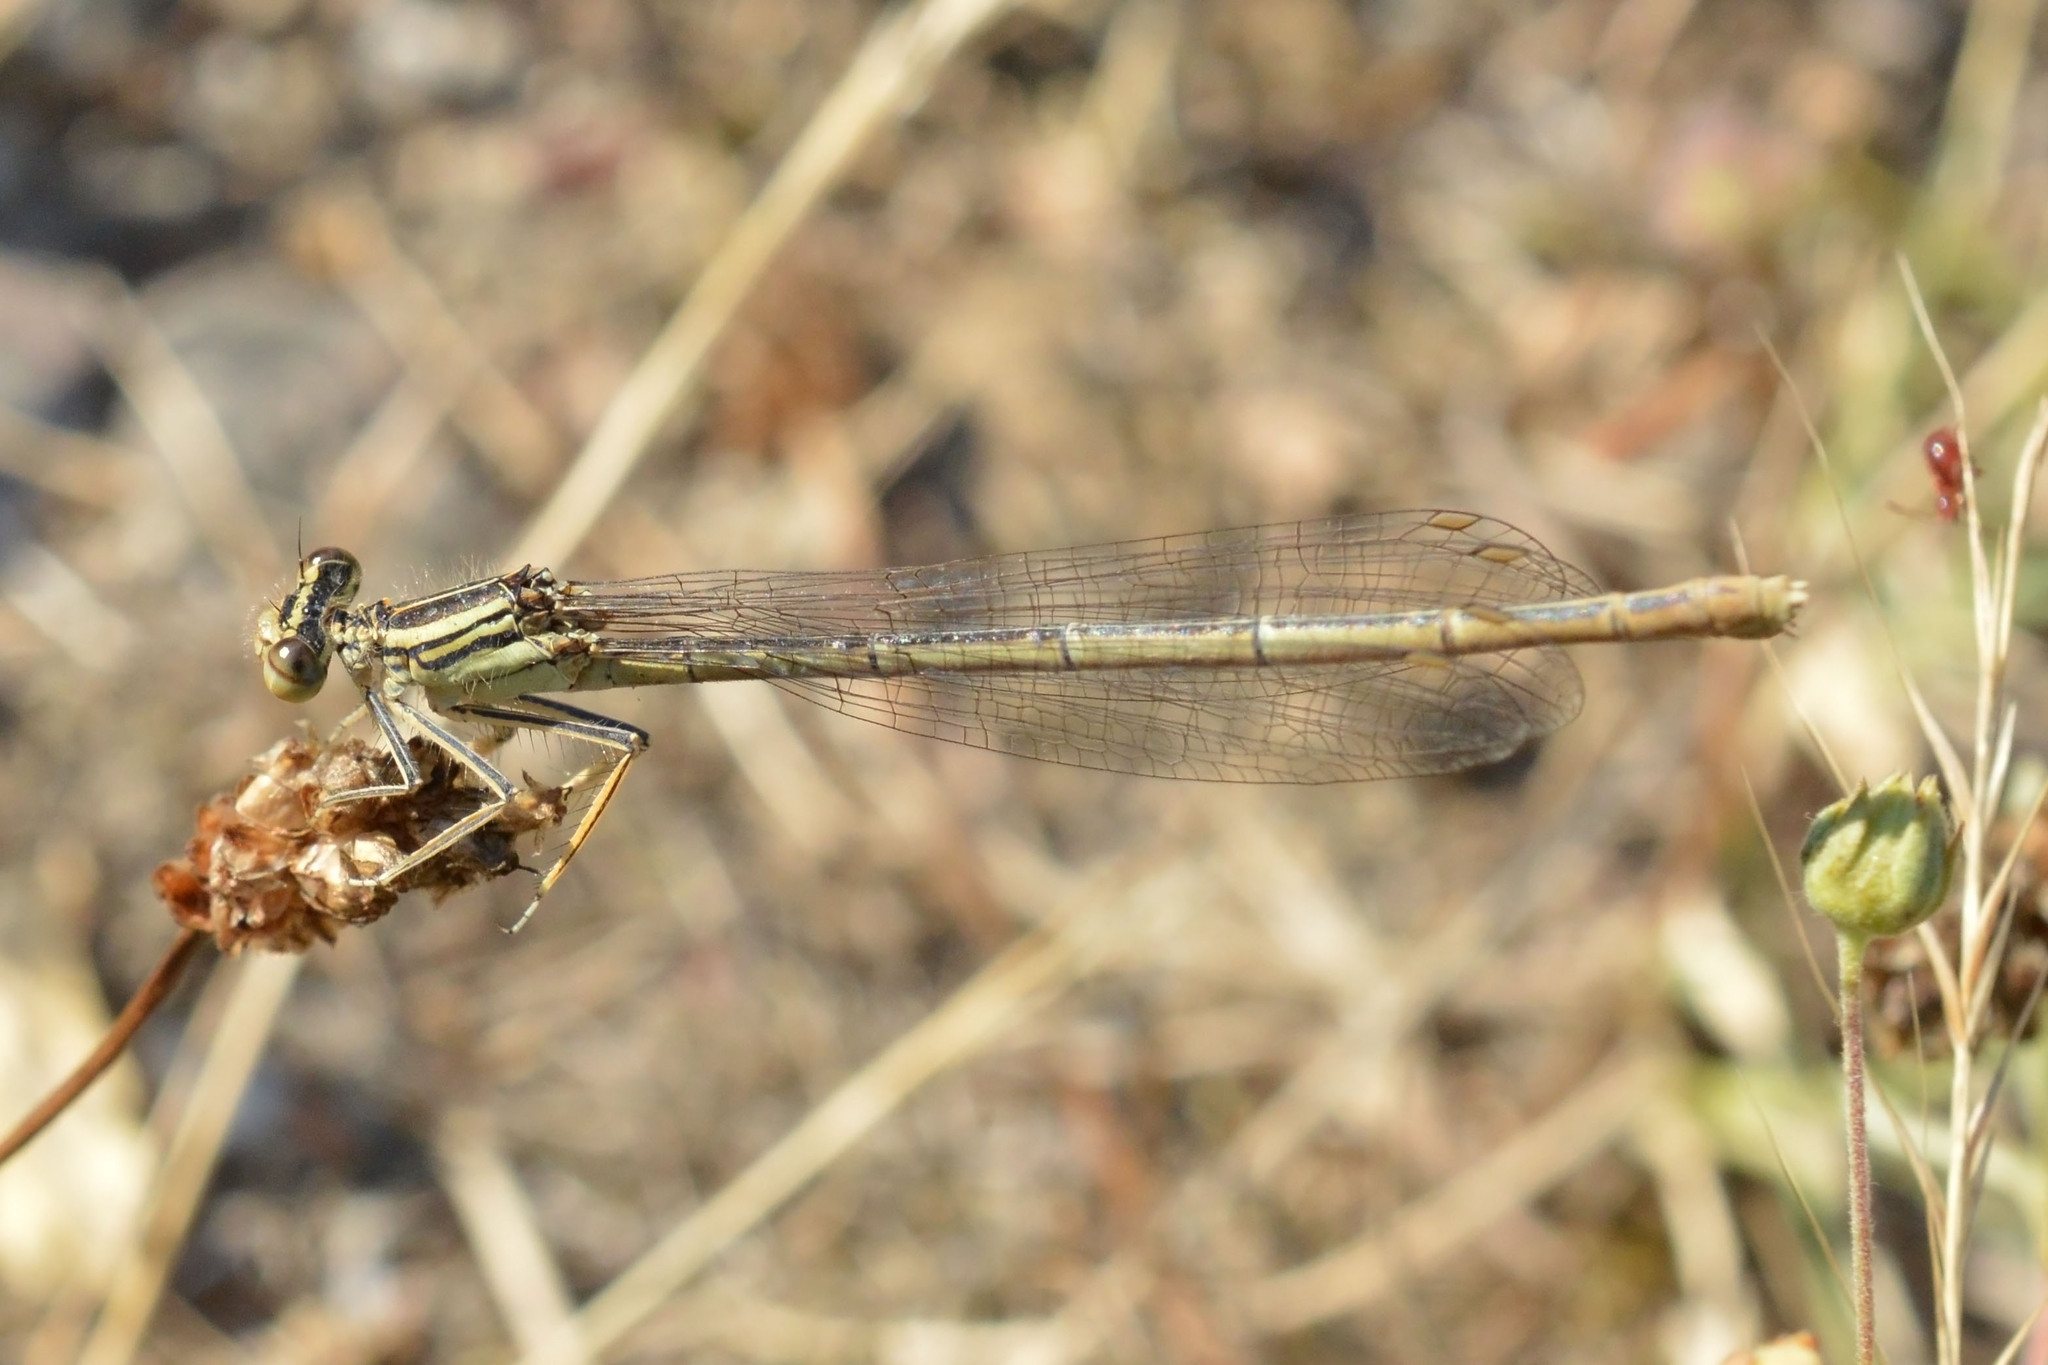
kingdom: Animalia
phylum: Arthropoda
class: Insecta
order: Odonata
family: Platycnemididae
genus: Platycnemis
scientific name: Platycnemis pennipes
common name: White-legged damselfly
